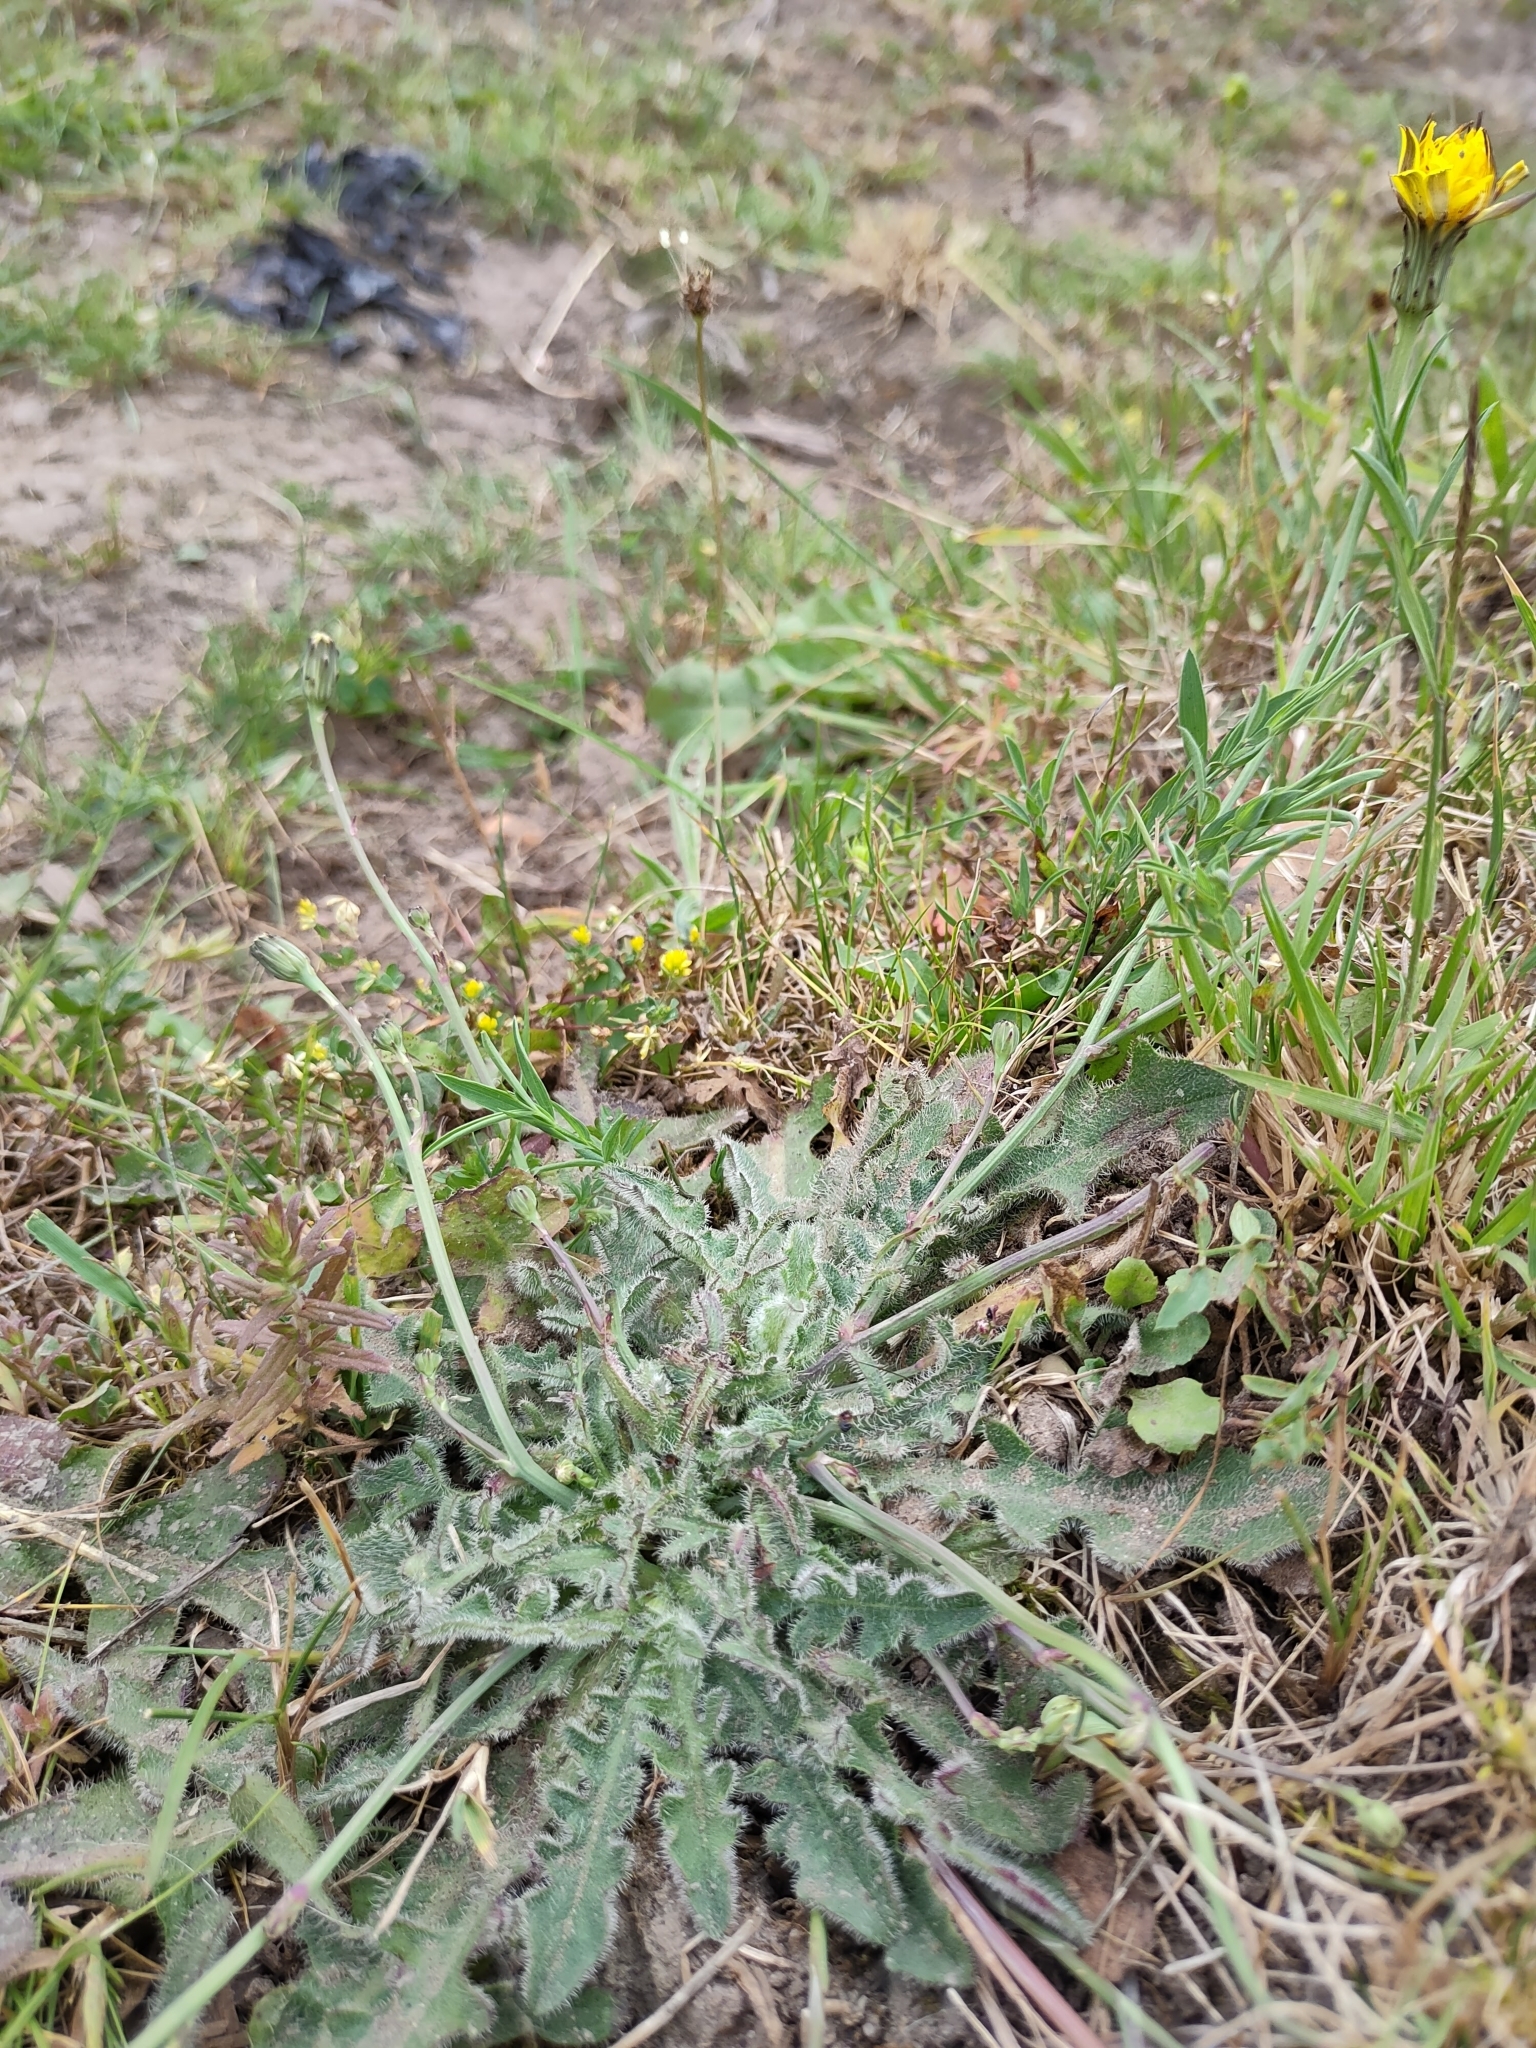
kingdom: Plantae
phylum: Tracheophyta
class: Magnoliopsida
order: Asterales
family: Asteraceae
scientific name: Asteraceae
